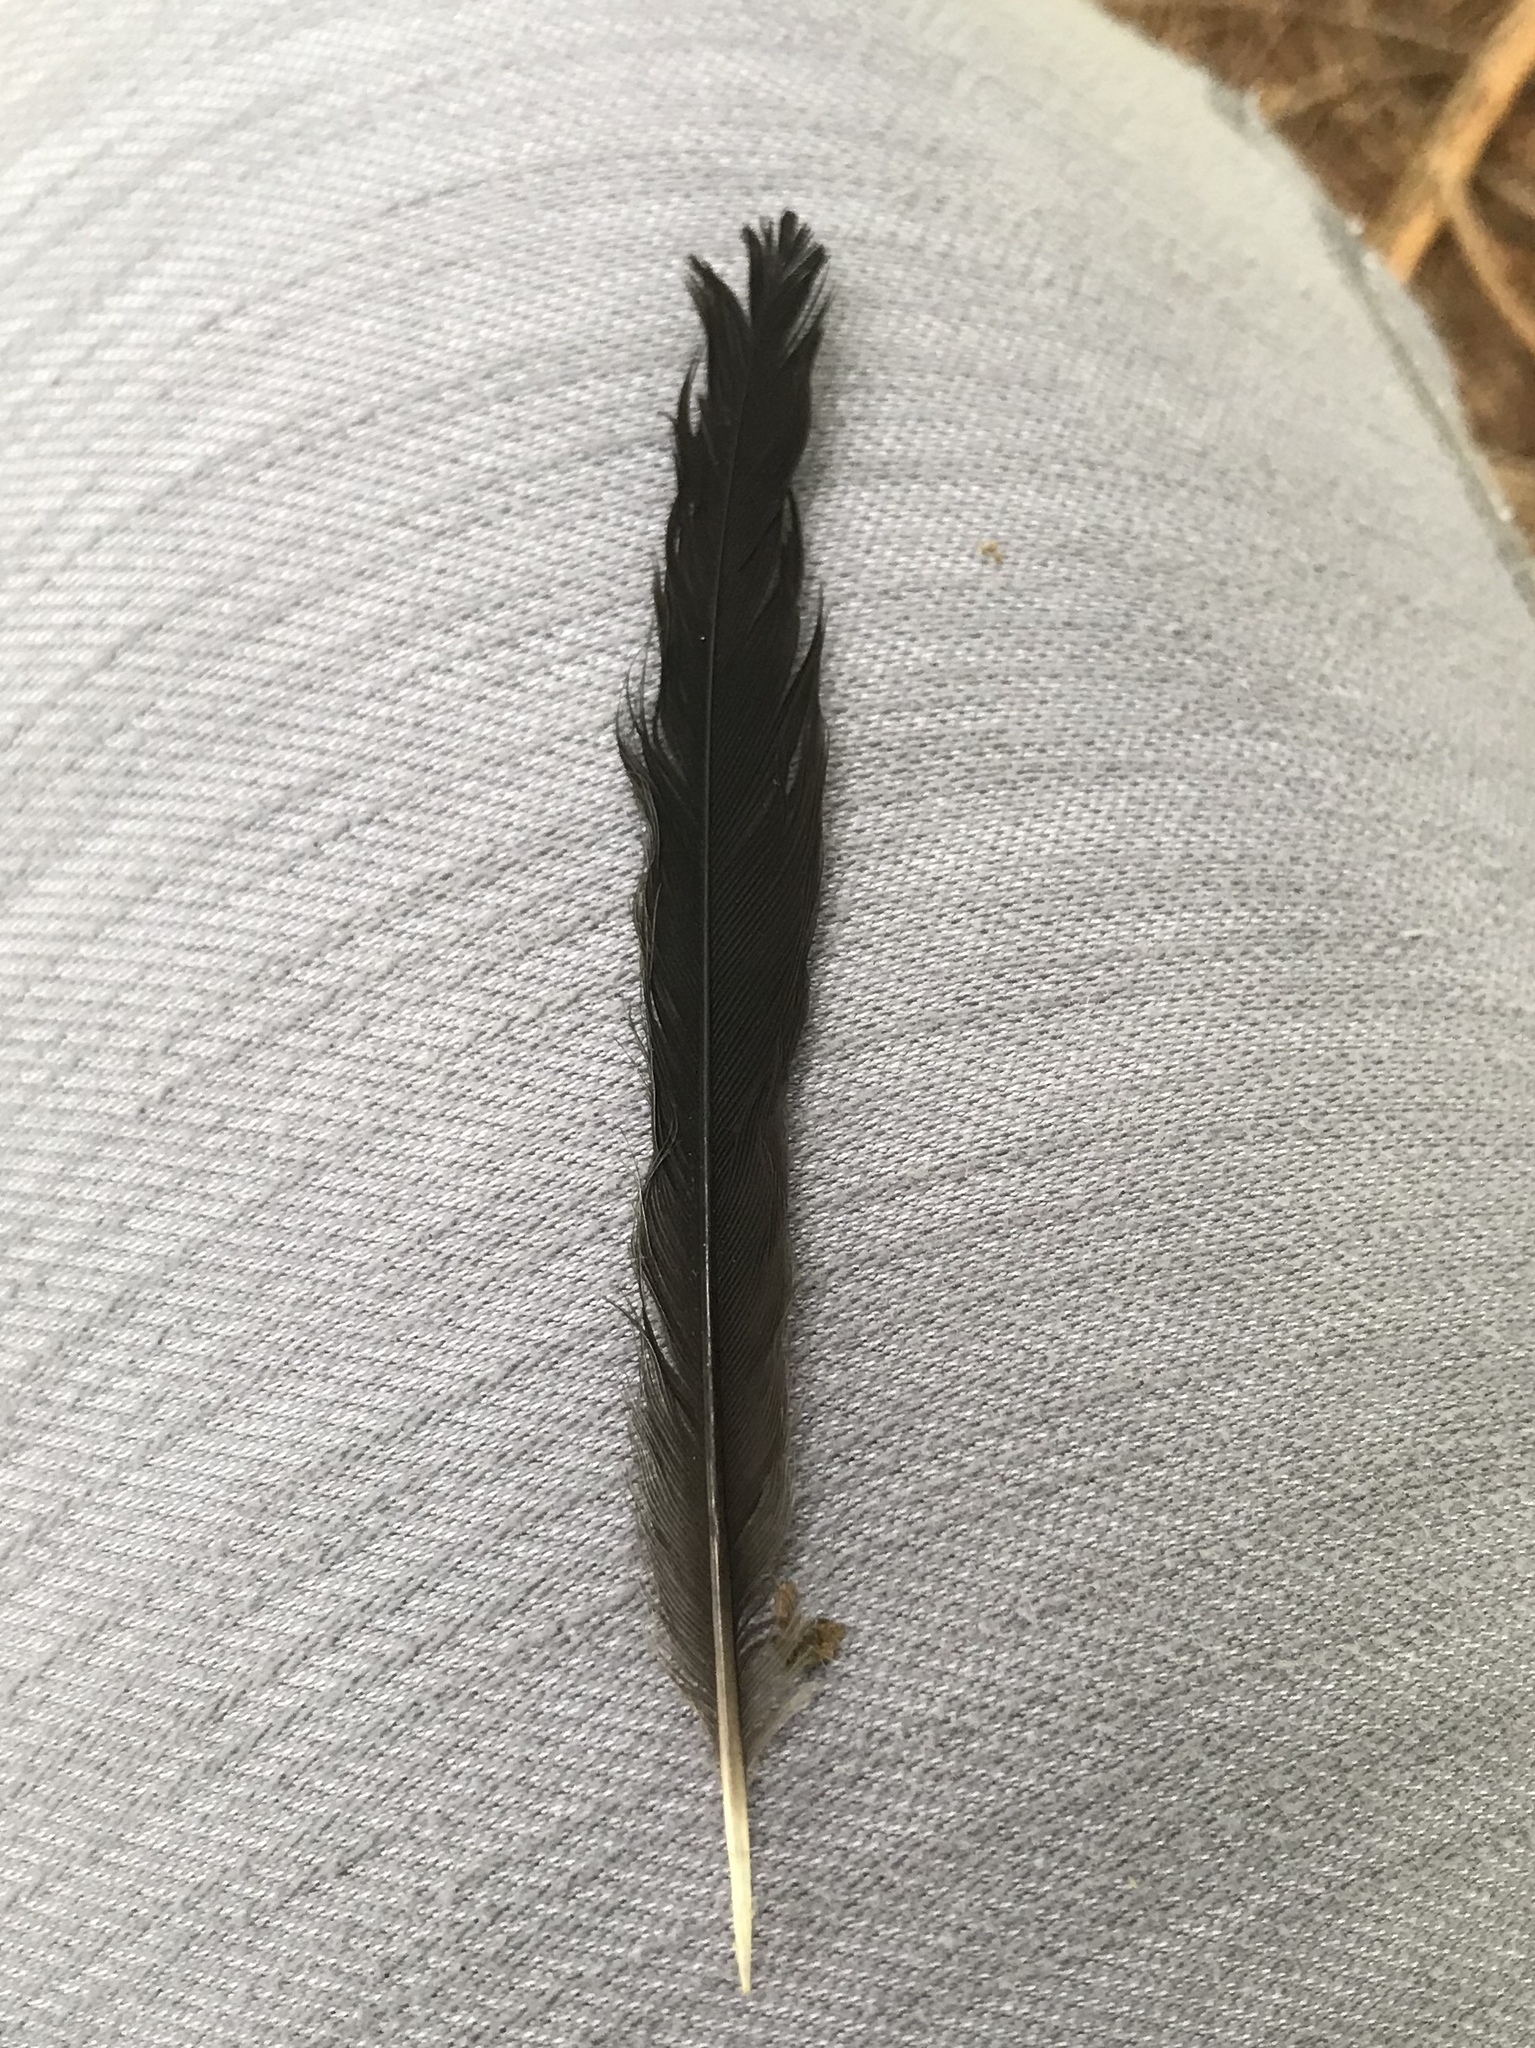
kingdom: Animalia
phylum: Chordata
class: Aves
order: Passeriformes
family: Mimidae
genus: Dumetella
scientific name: Dumetella carolinensis
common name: Gray catbird
